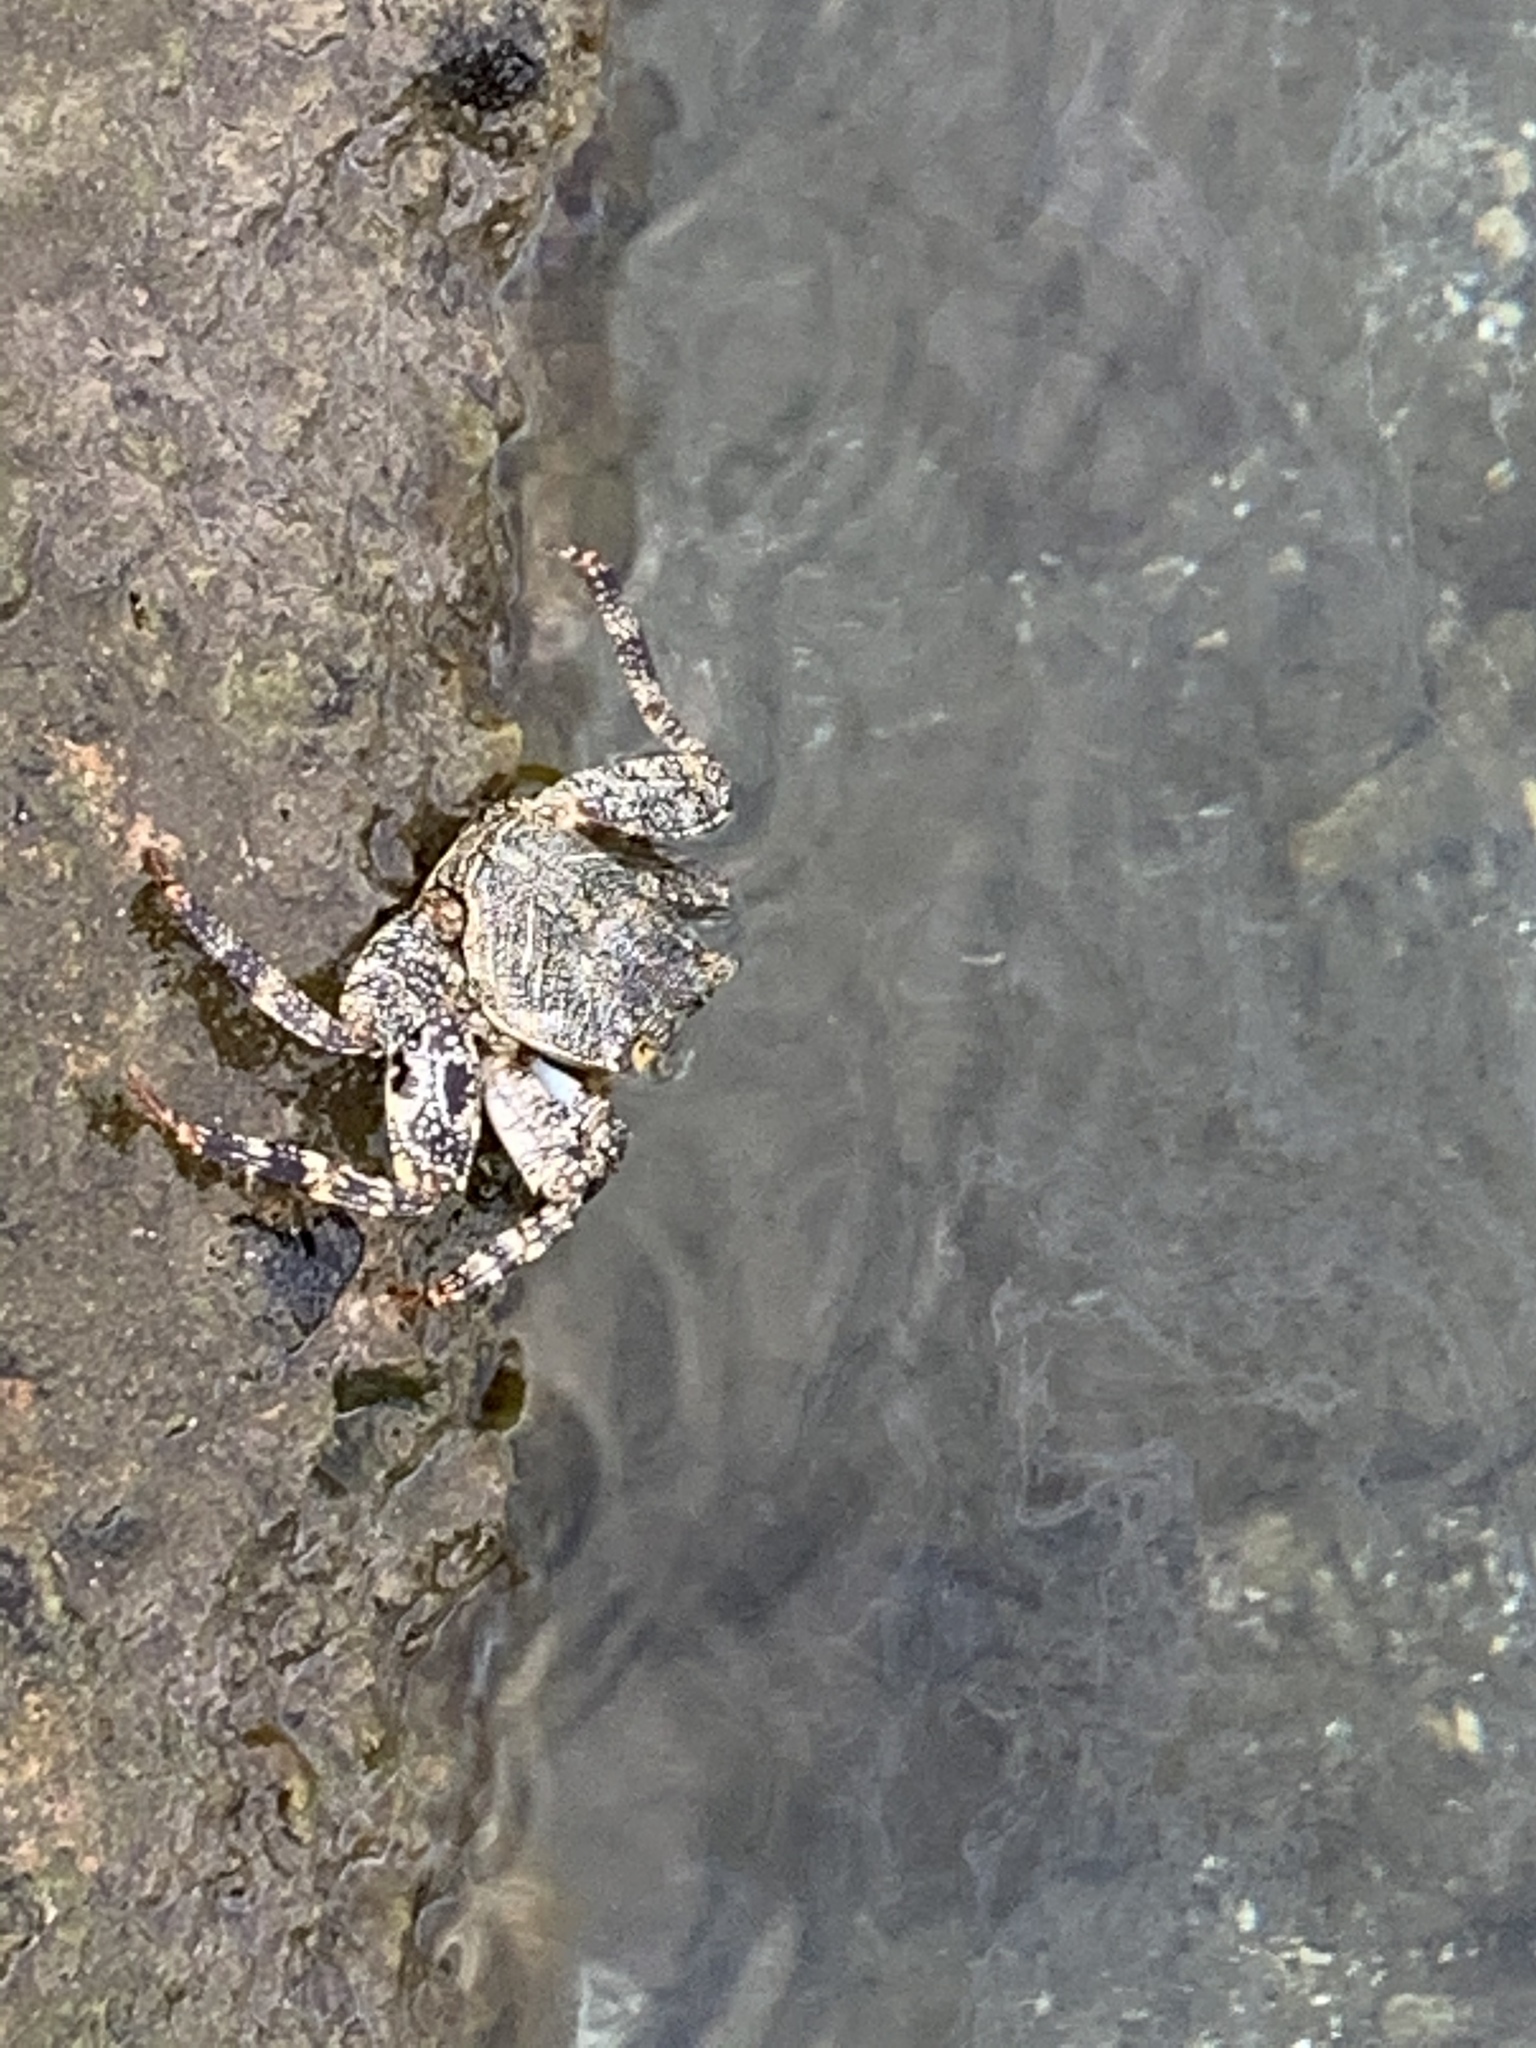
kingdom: Animalia
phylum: Arthropoda
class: Malacostraca
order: Decapoda
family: Grapsidae
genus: Grapsus
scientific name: Grapsus grapsus
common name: Sally lightfoot
